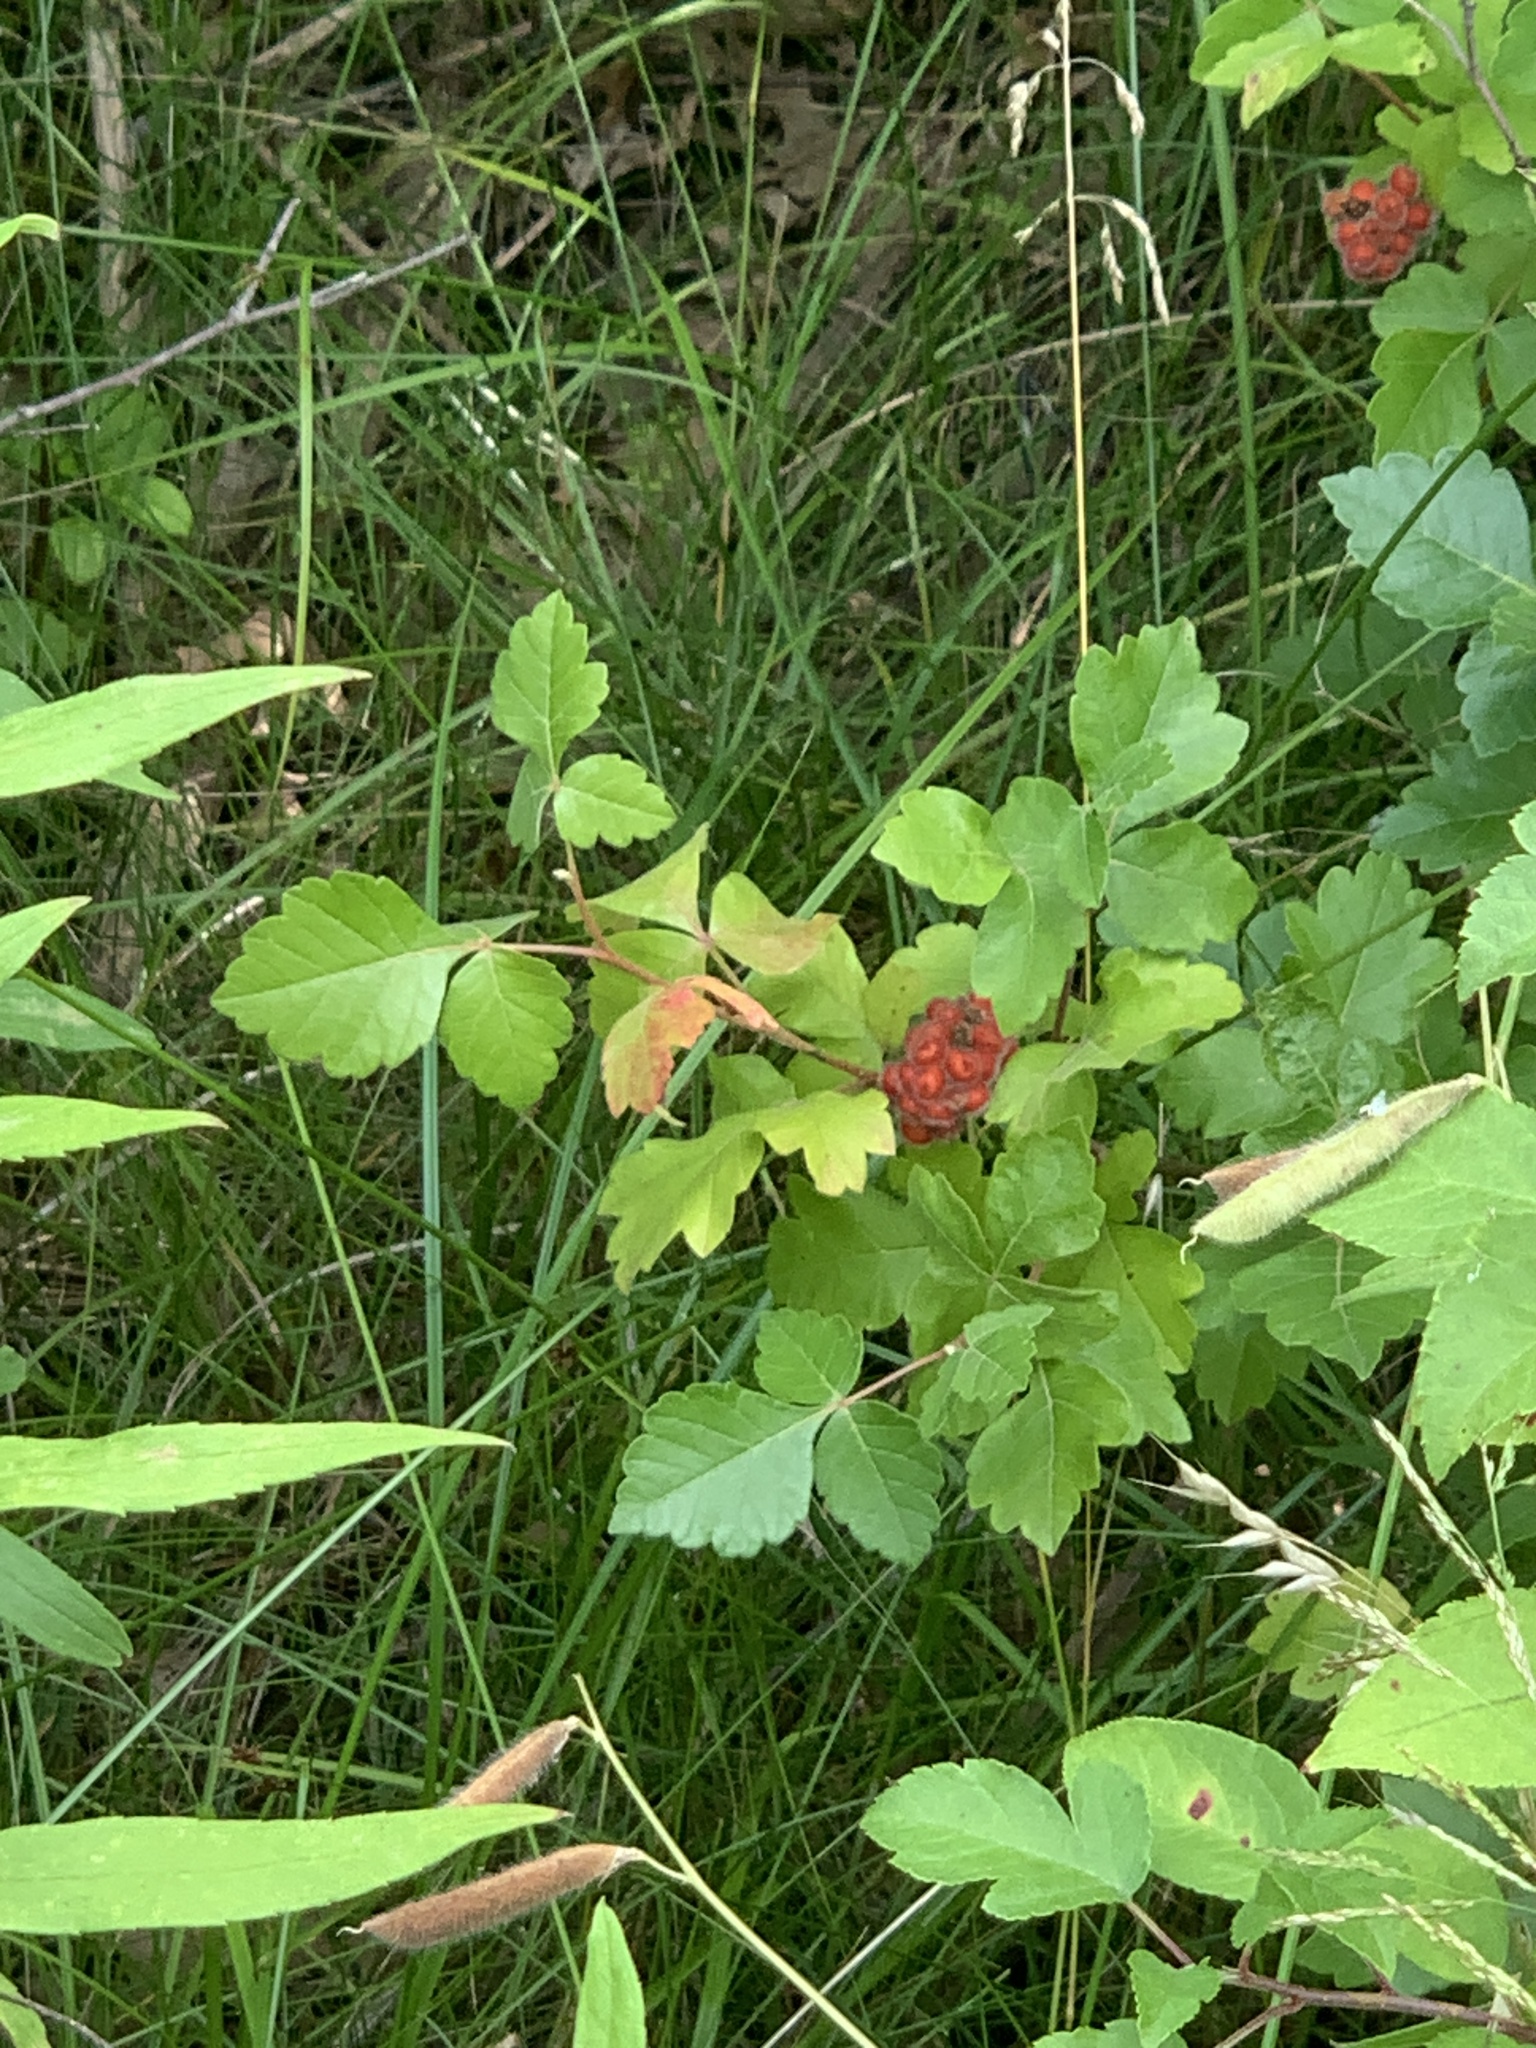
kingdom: Plantae
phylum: Tracheophyta
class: Magnoliopsida
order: Sapindales
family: Anacardiaceae
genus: Rhus
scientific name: Rhus aromatica
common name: Aromatic sumac
